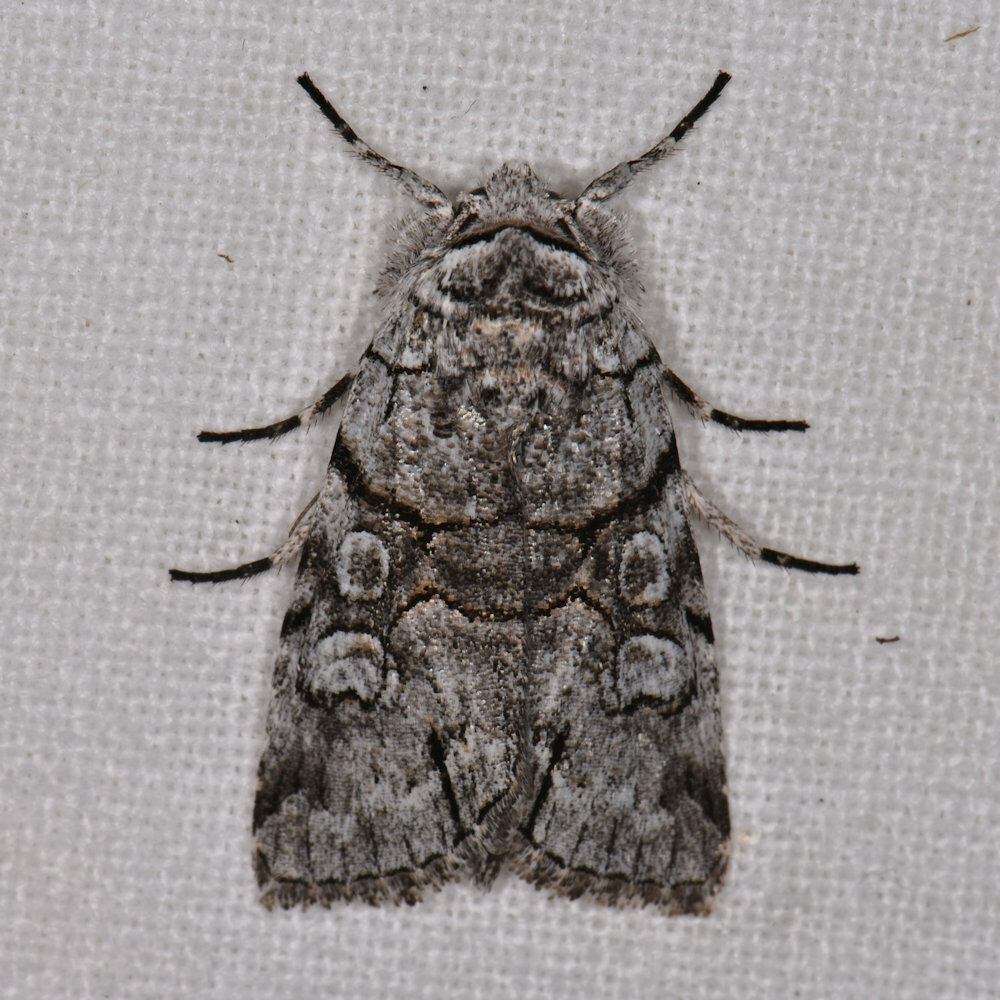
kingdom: Animalia
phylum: Arthropoda
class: Insecta
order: Lepidoptera
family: Noctuidae
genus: Sympistis
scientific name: Sympistis chionanthi
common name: Fringe-tree sallow
